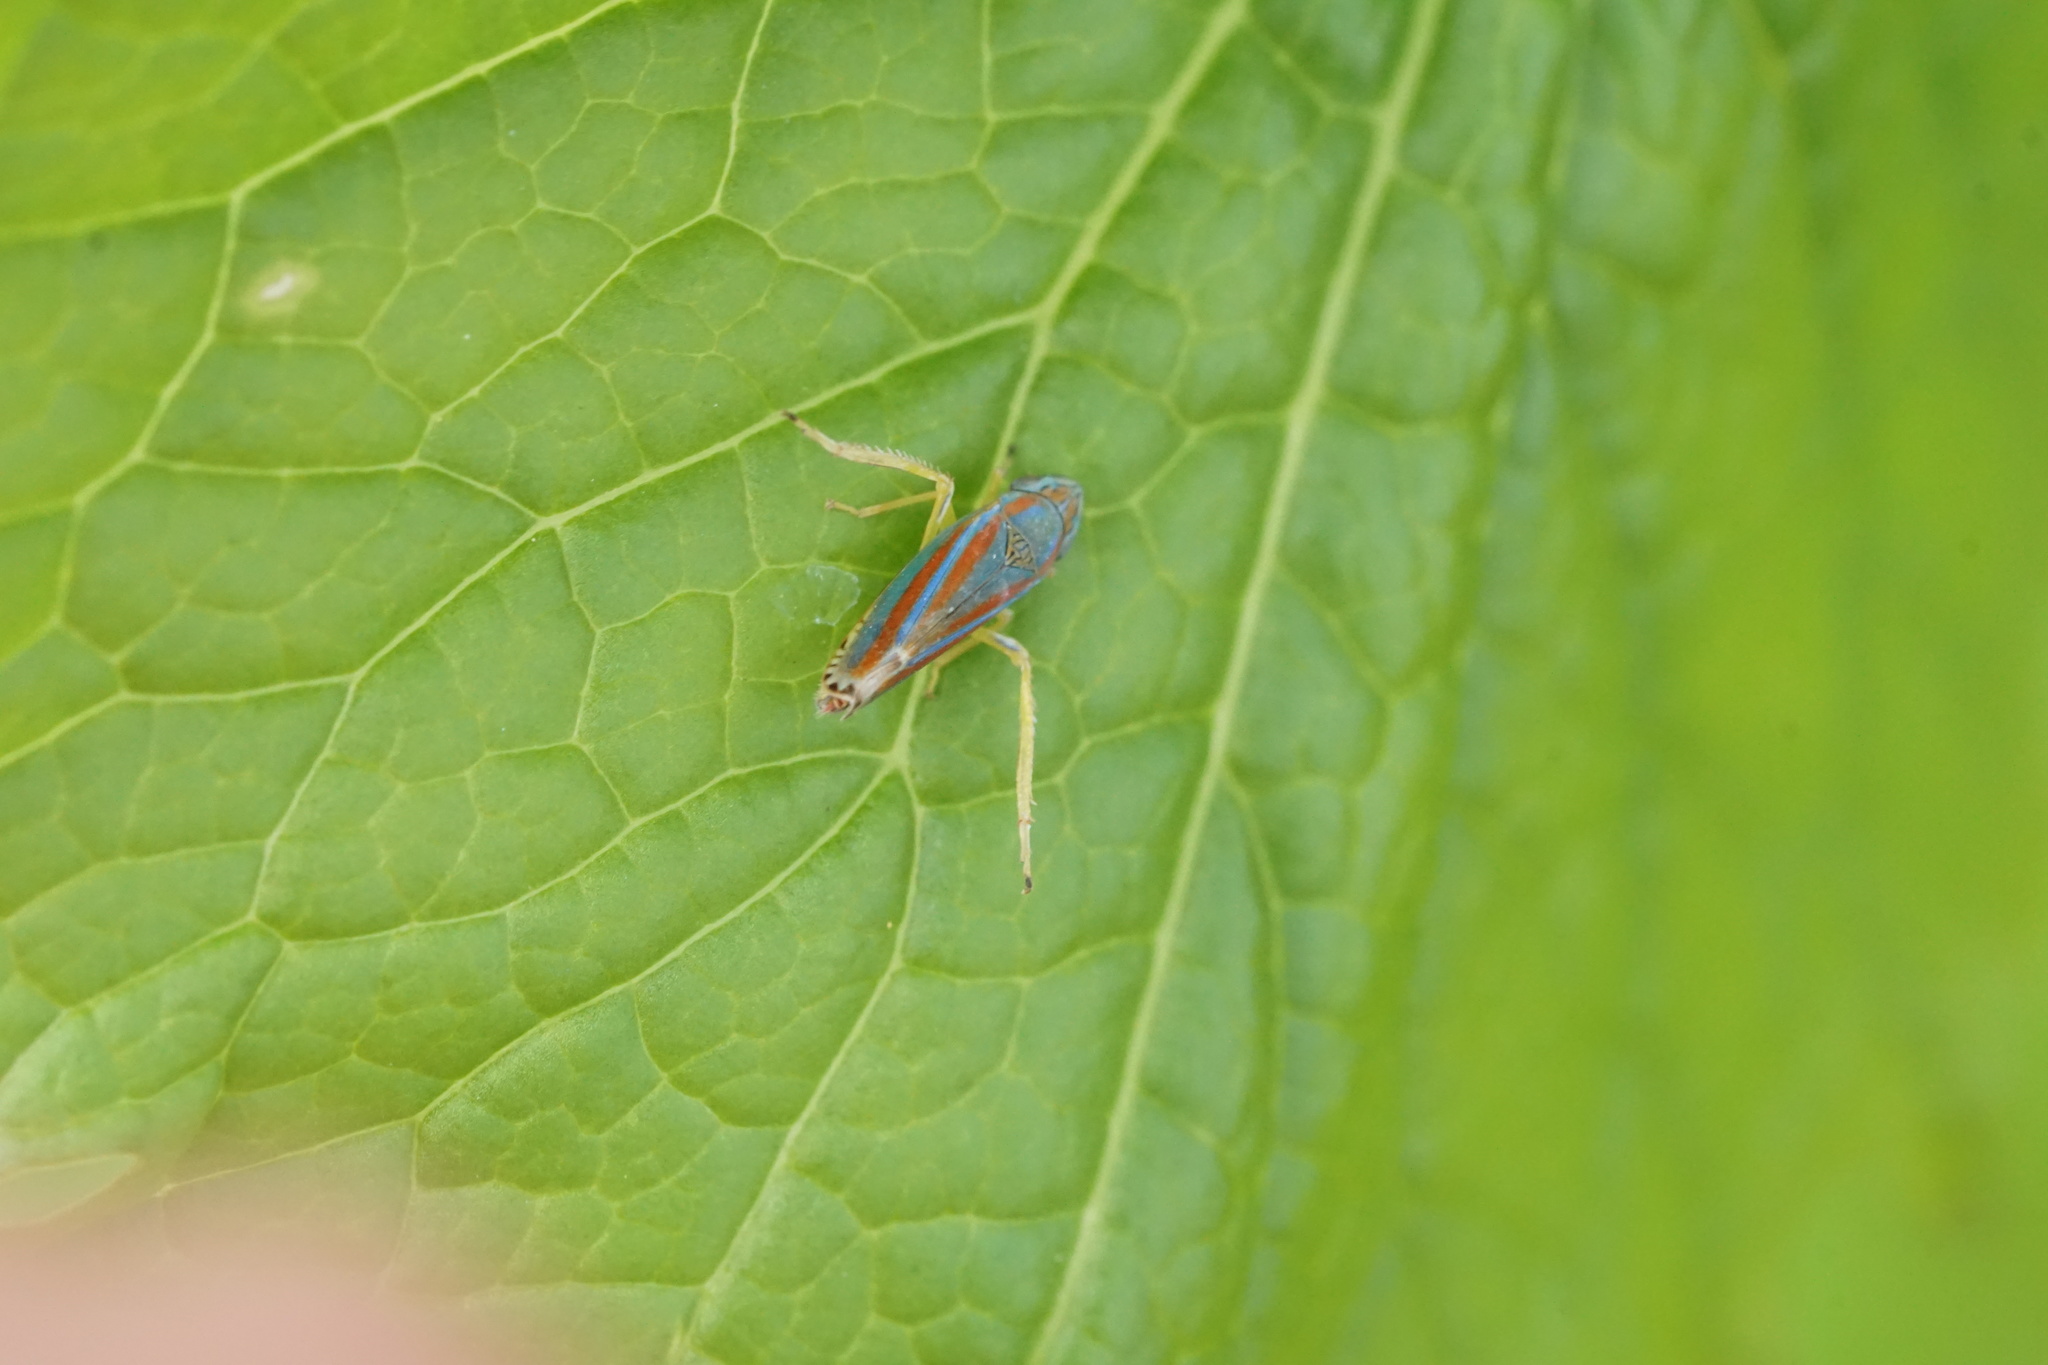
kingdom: Animalia
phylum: Arthropoda
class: Insecta
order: Hemiptera
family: Cicadellidae
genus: Graphocephala
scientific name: Graphocephala versuta
